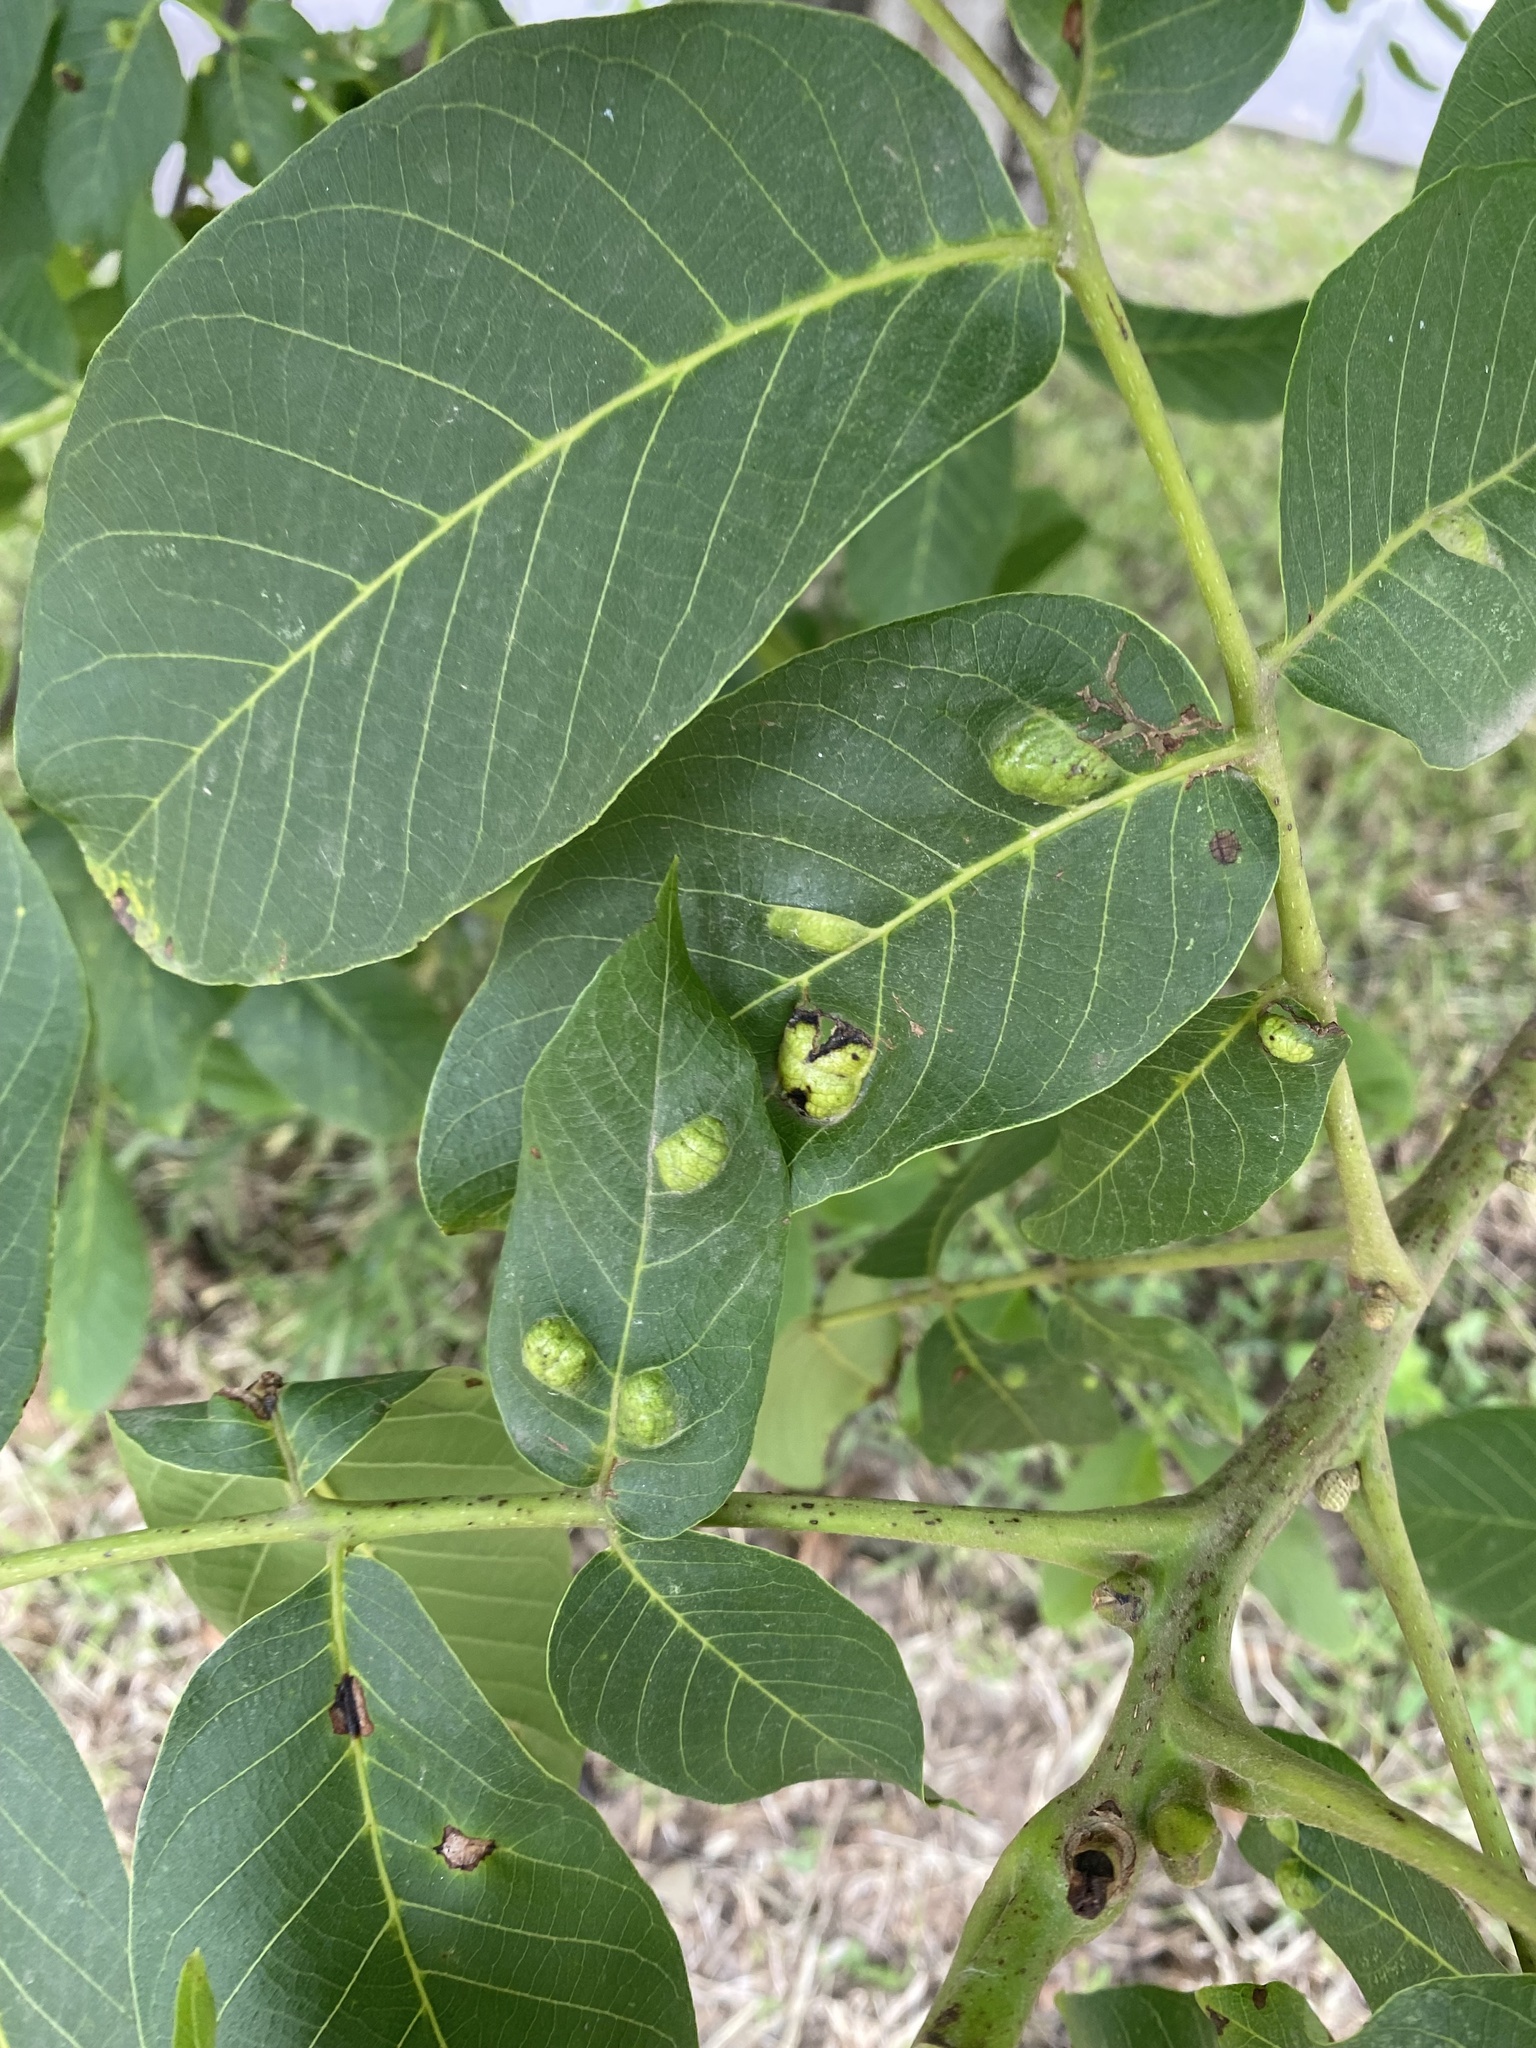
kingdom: Animalia
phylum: Arthropoda
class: Arachnida
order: Trombidiformes
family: Eriophyidae
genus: Aceria
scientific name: Aceria erinea
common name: Persian walnut erineum mite
